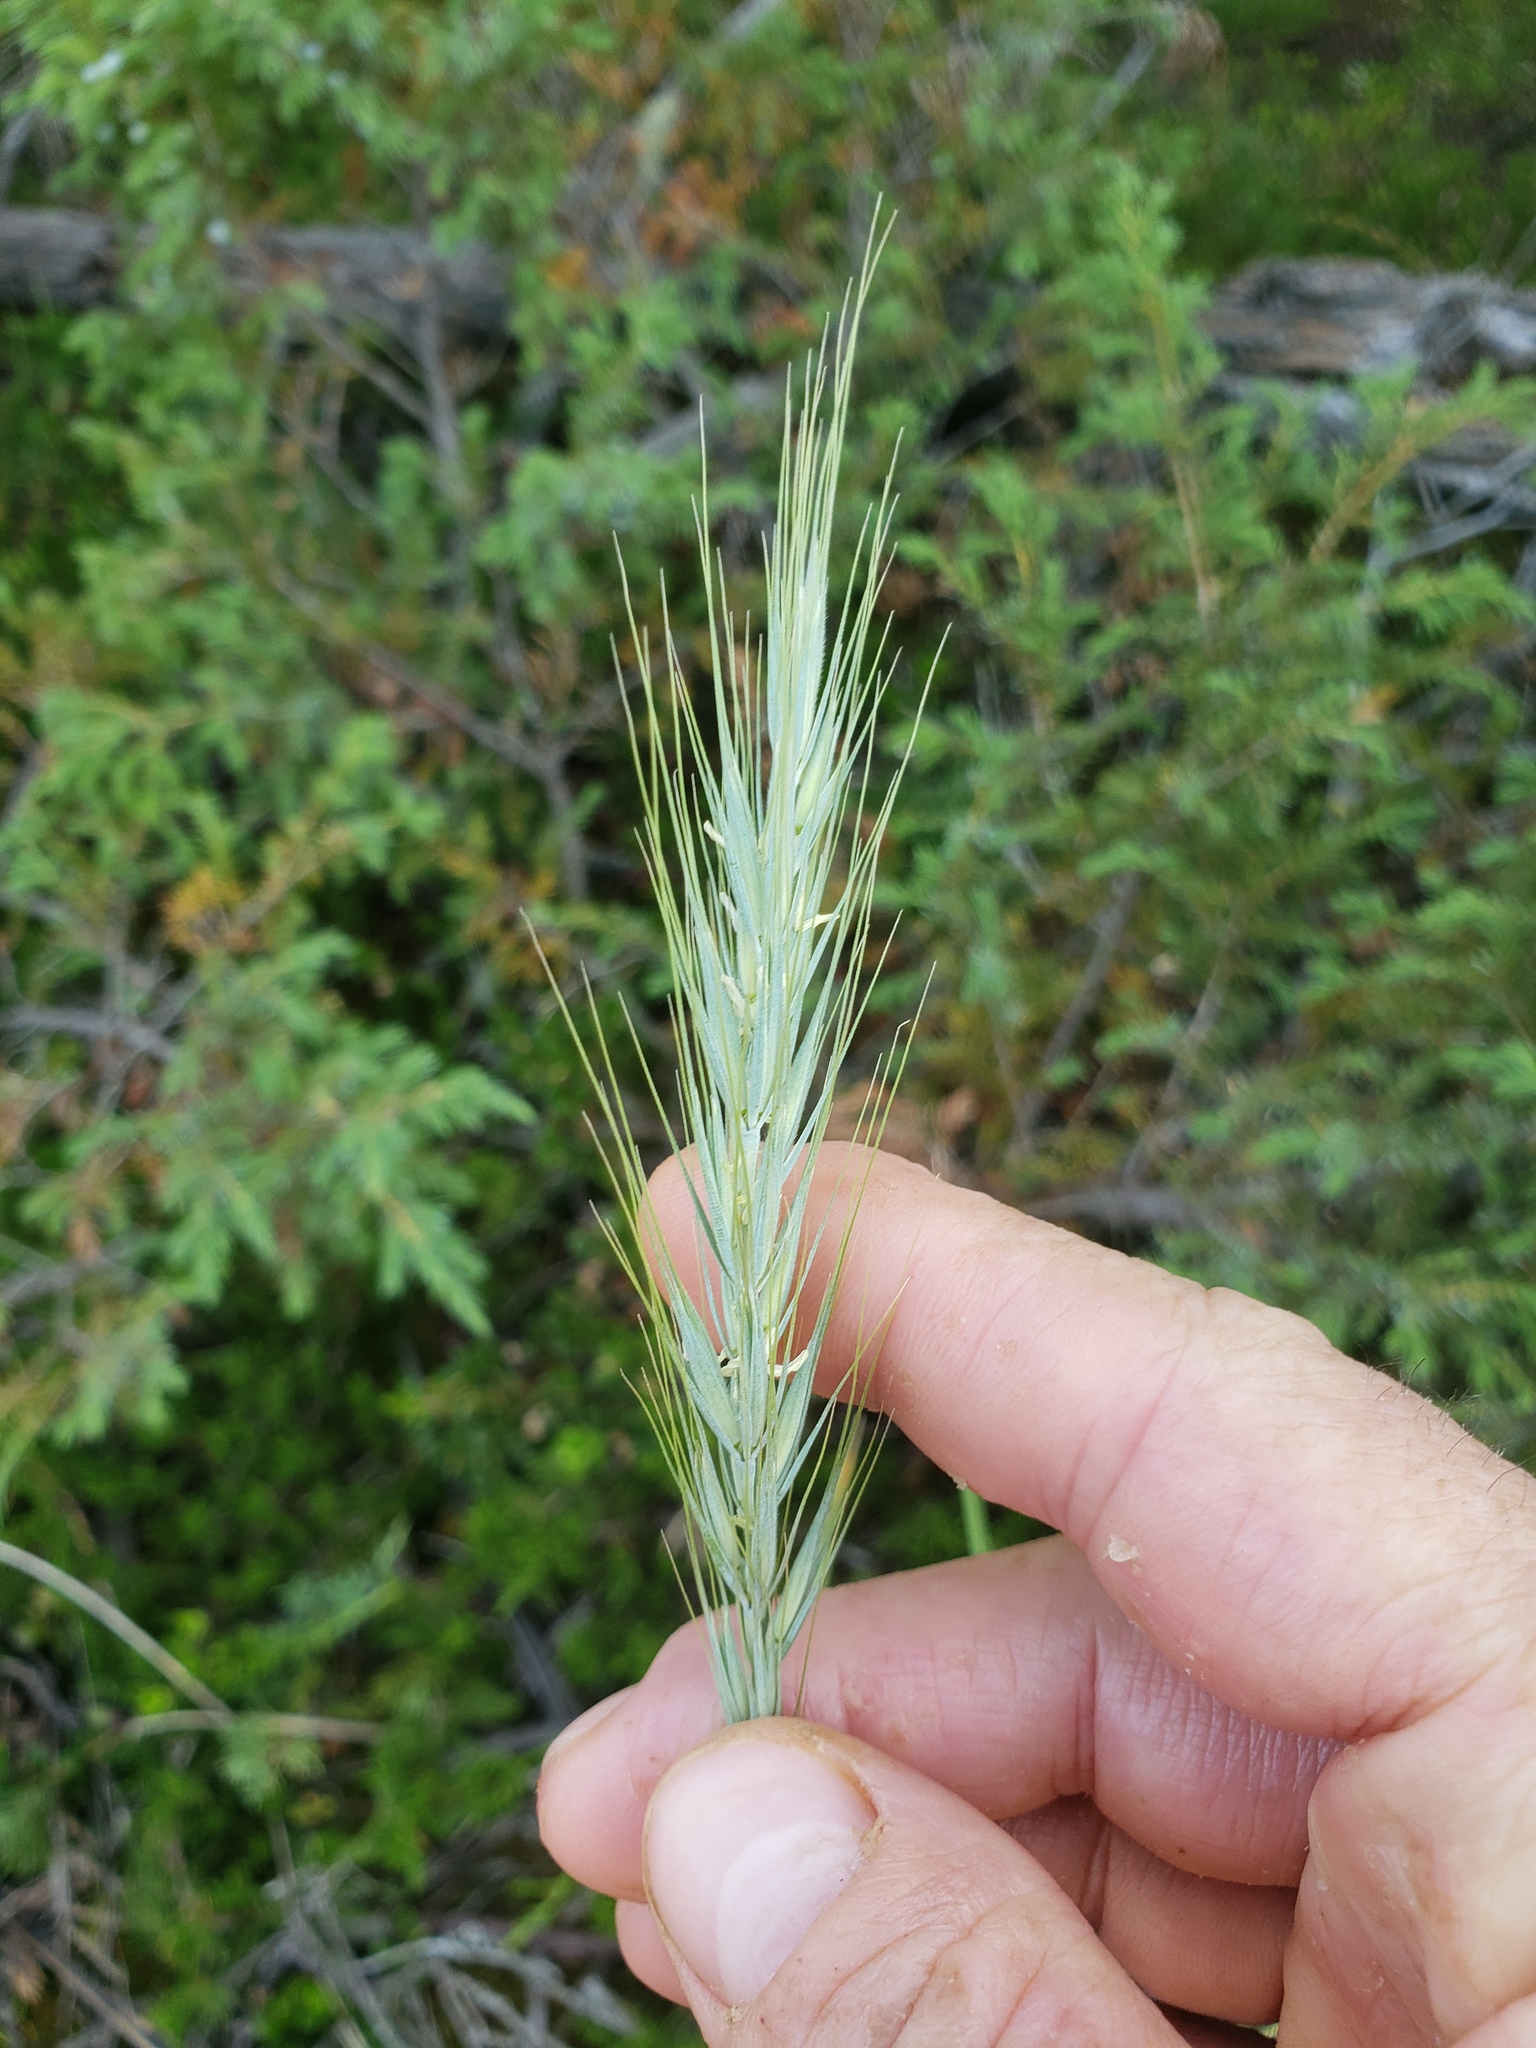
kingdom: Plantae
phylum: Tracheophyta
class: Liliopsida
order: Poales
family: Poaceae
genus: Elymus
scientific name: Elymus canadensis
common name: Canada wild rye
